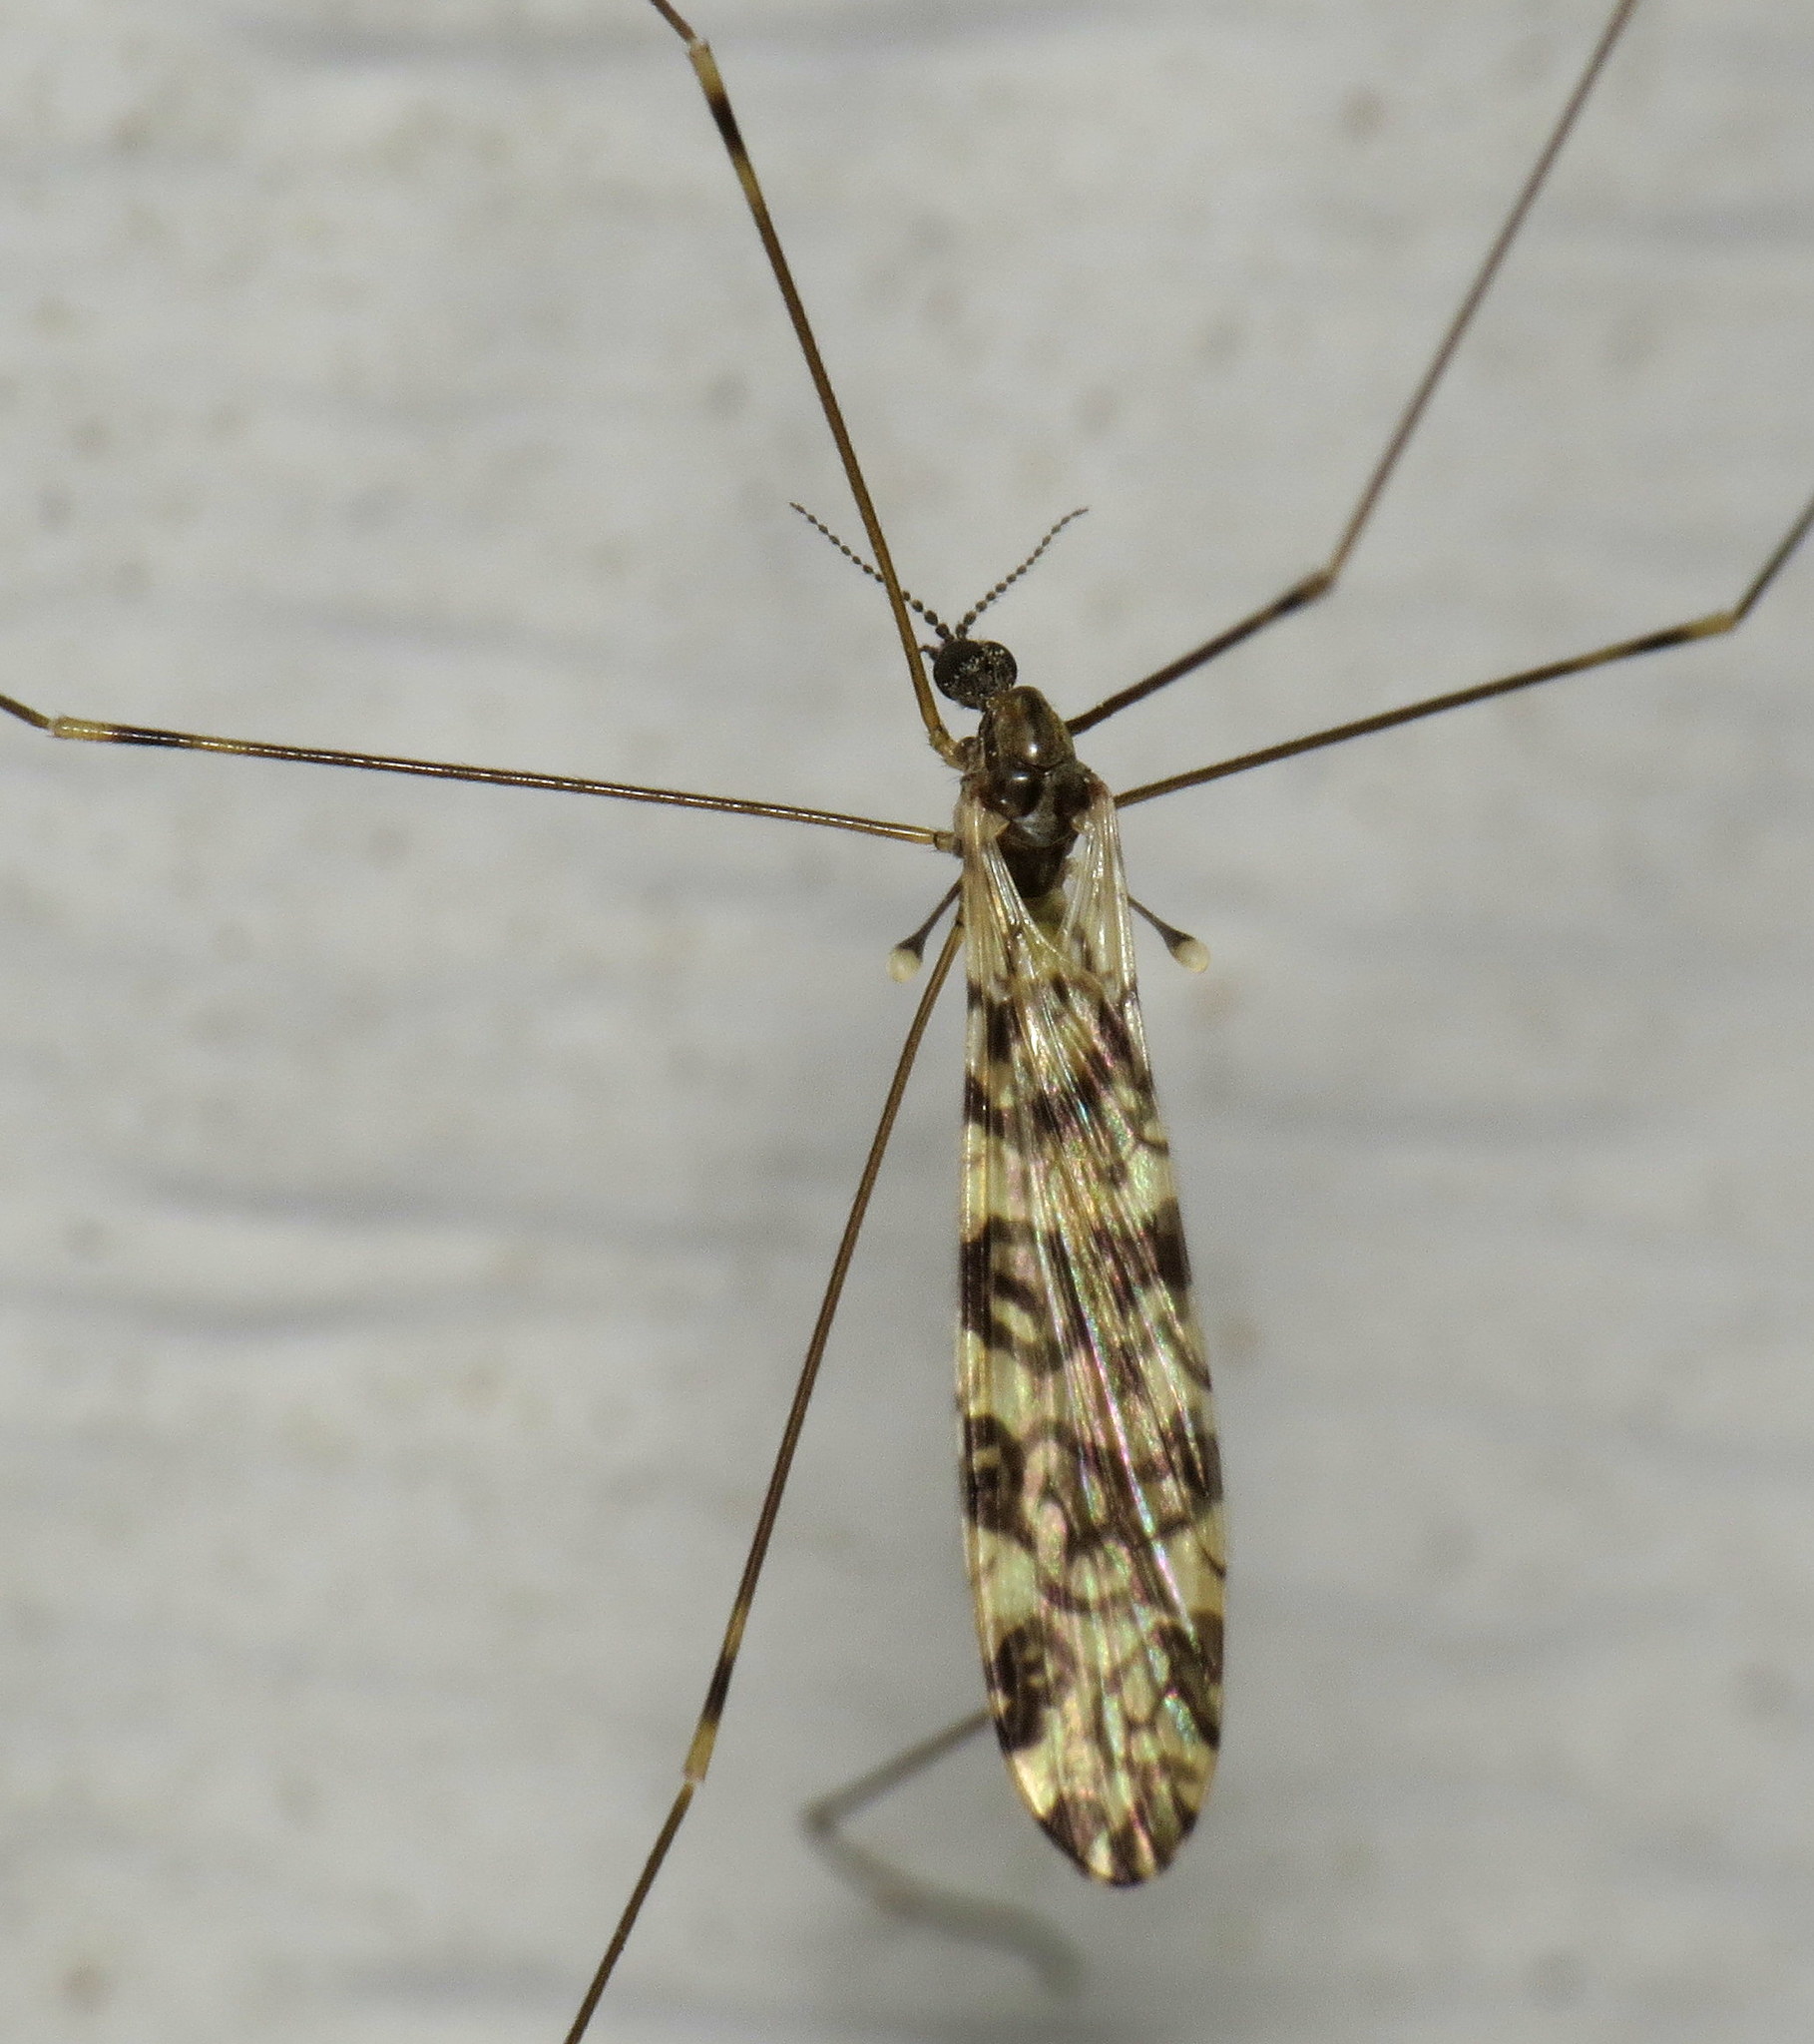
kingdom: Animalia
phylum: Arthropoda
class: Insecta
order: Diptera
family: Limoniidae
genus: Limonia
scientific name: Limonia annulata
